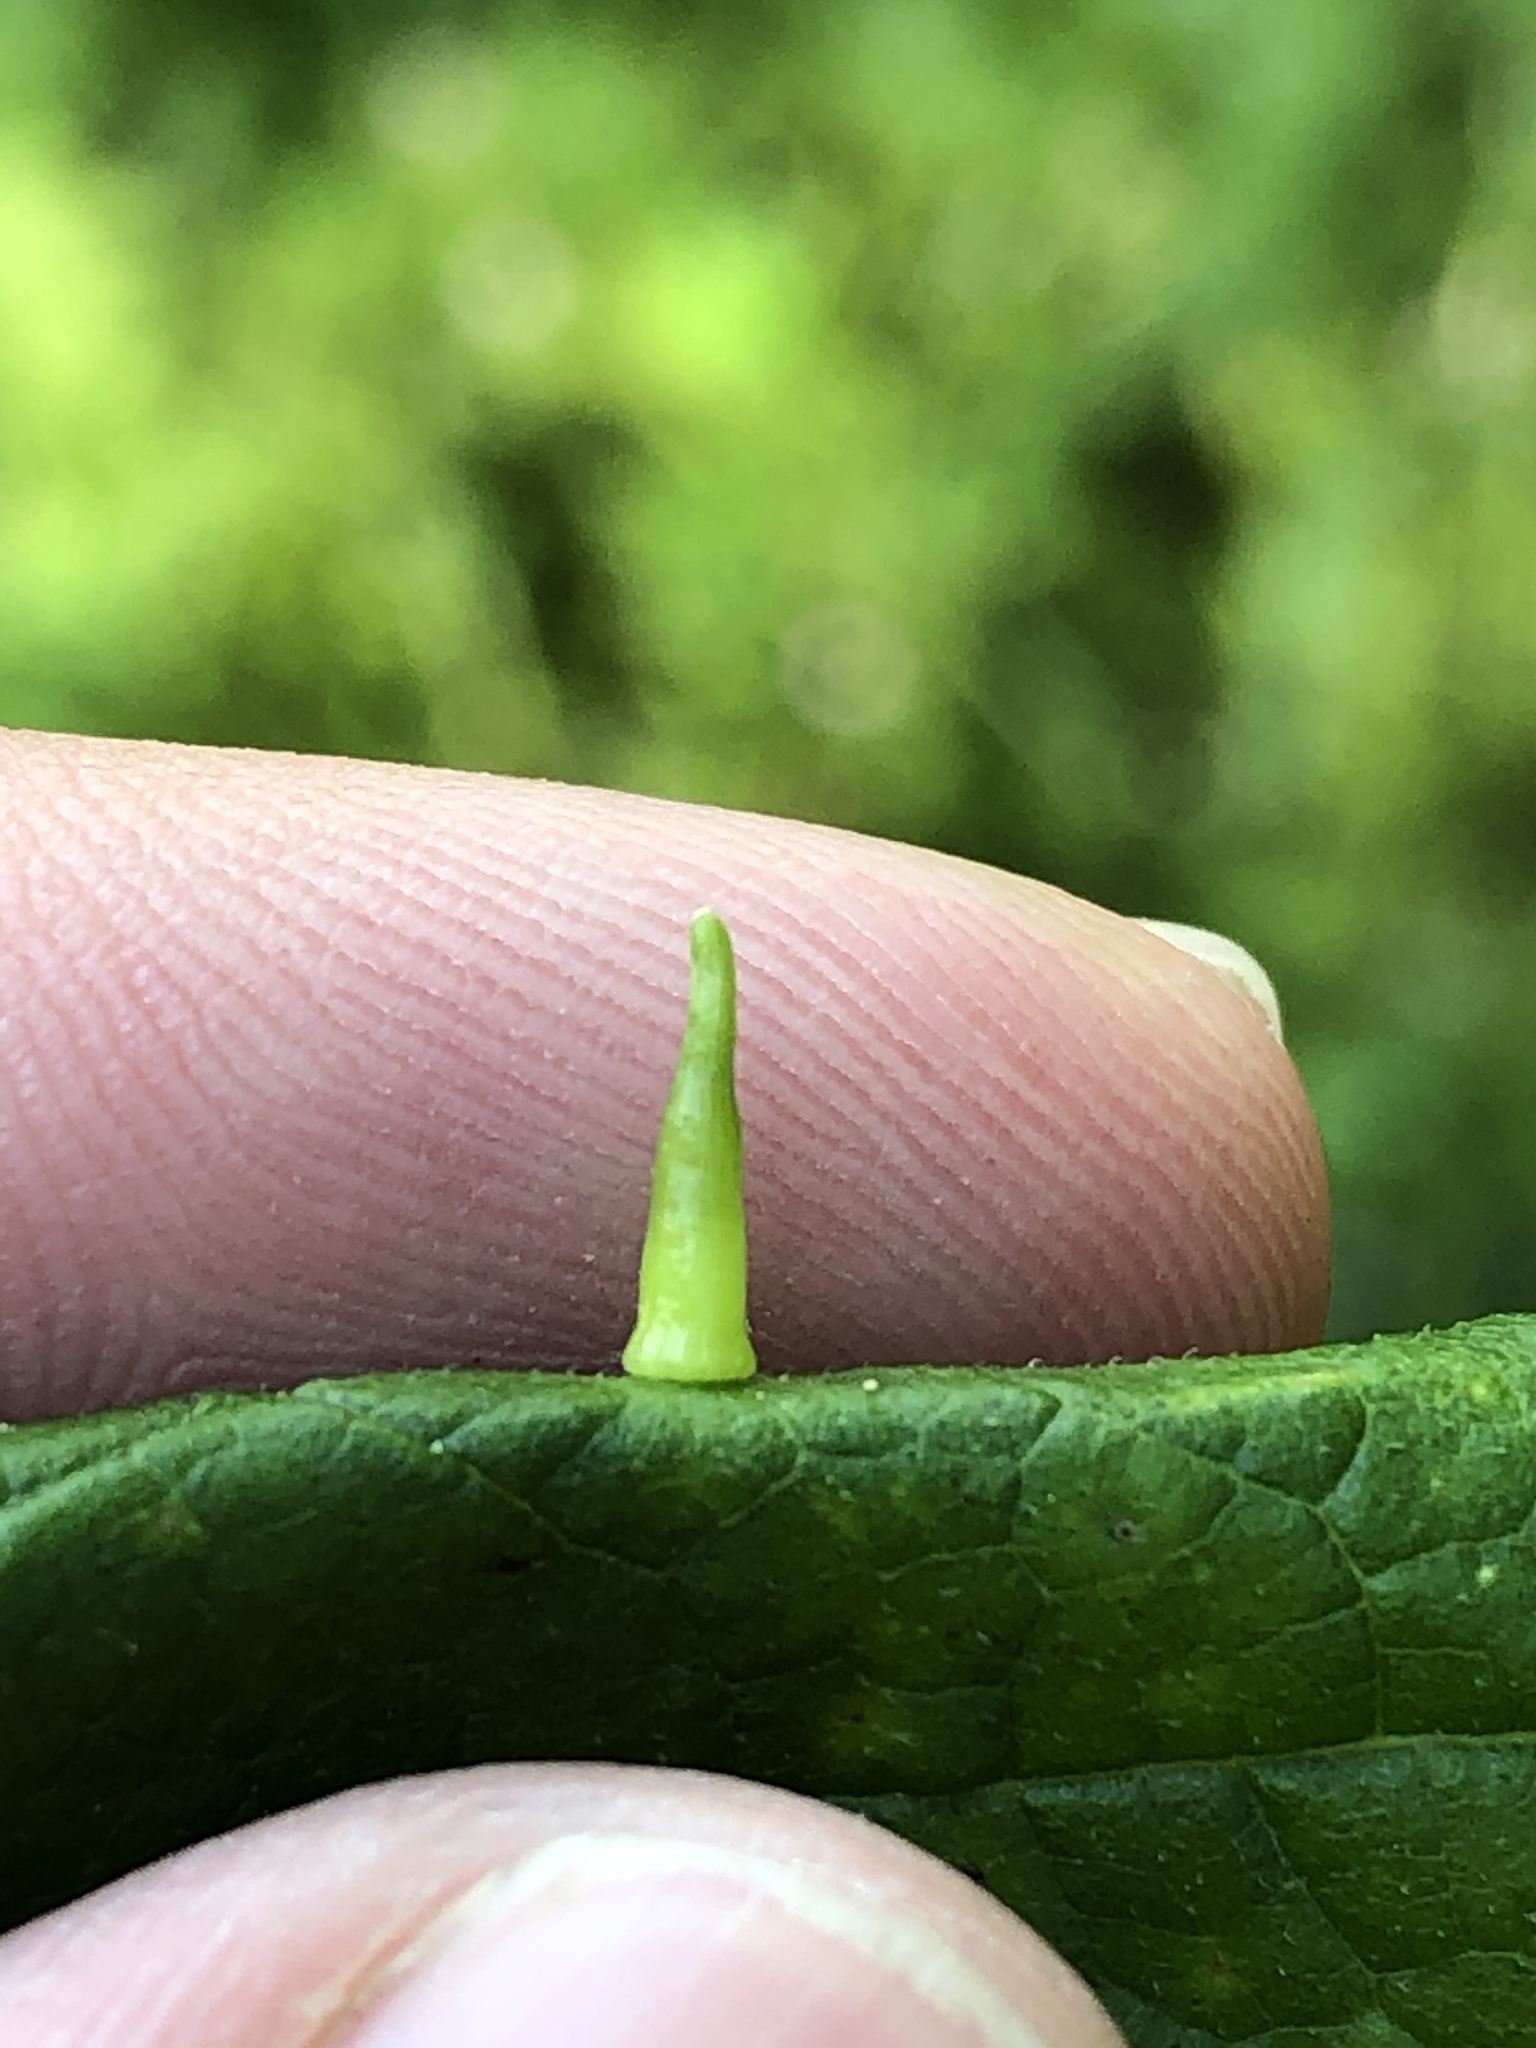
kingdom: Animalia
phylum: Arthropoda
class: Insecta
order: Diptera
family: Cecidomyiidae
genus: Celticecis
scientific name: Celticecis subulata
